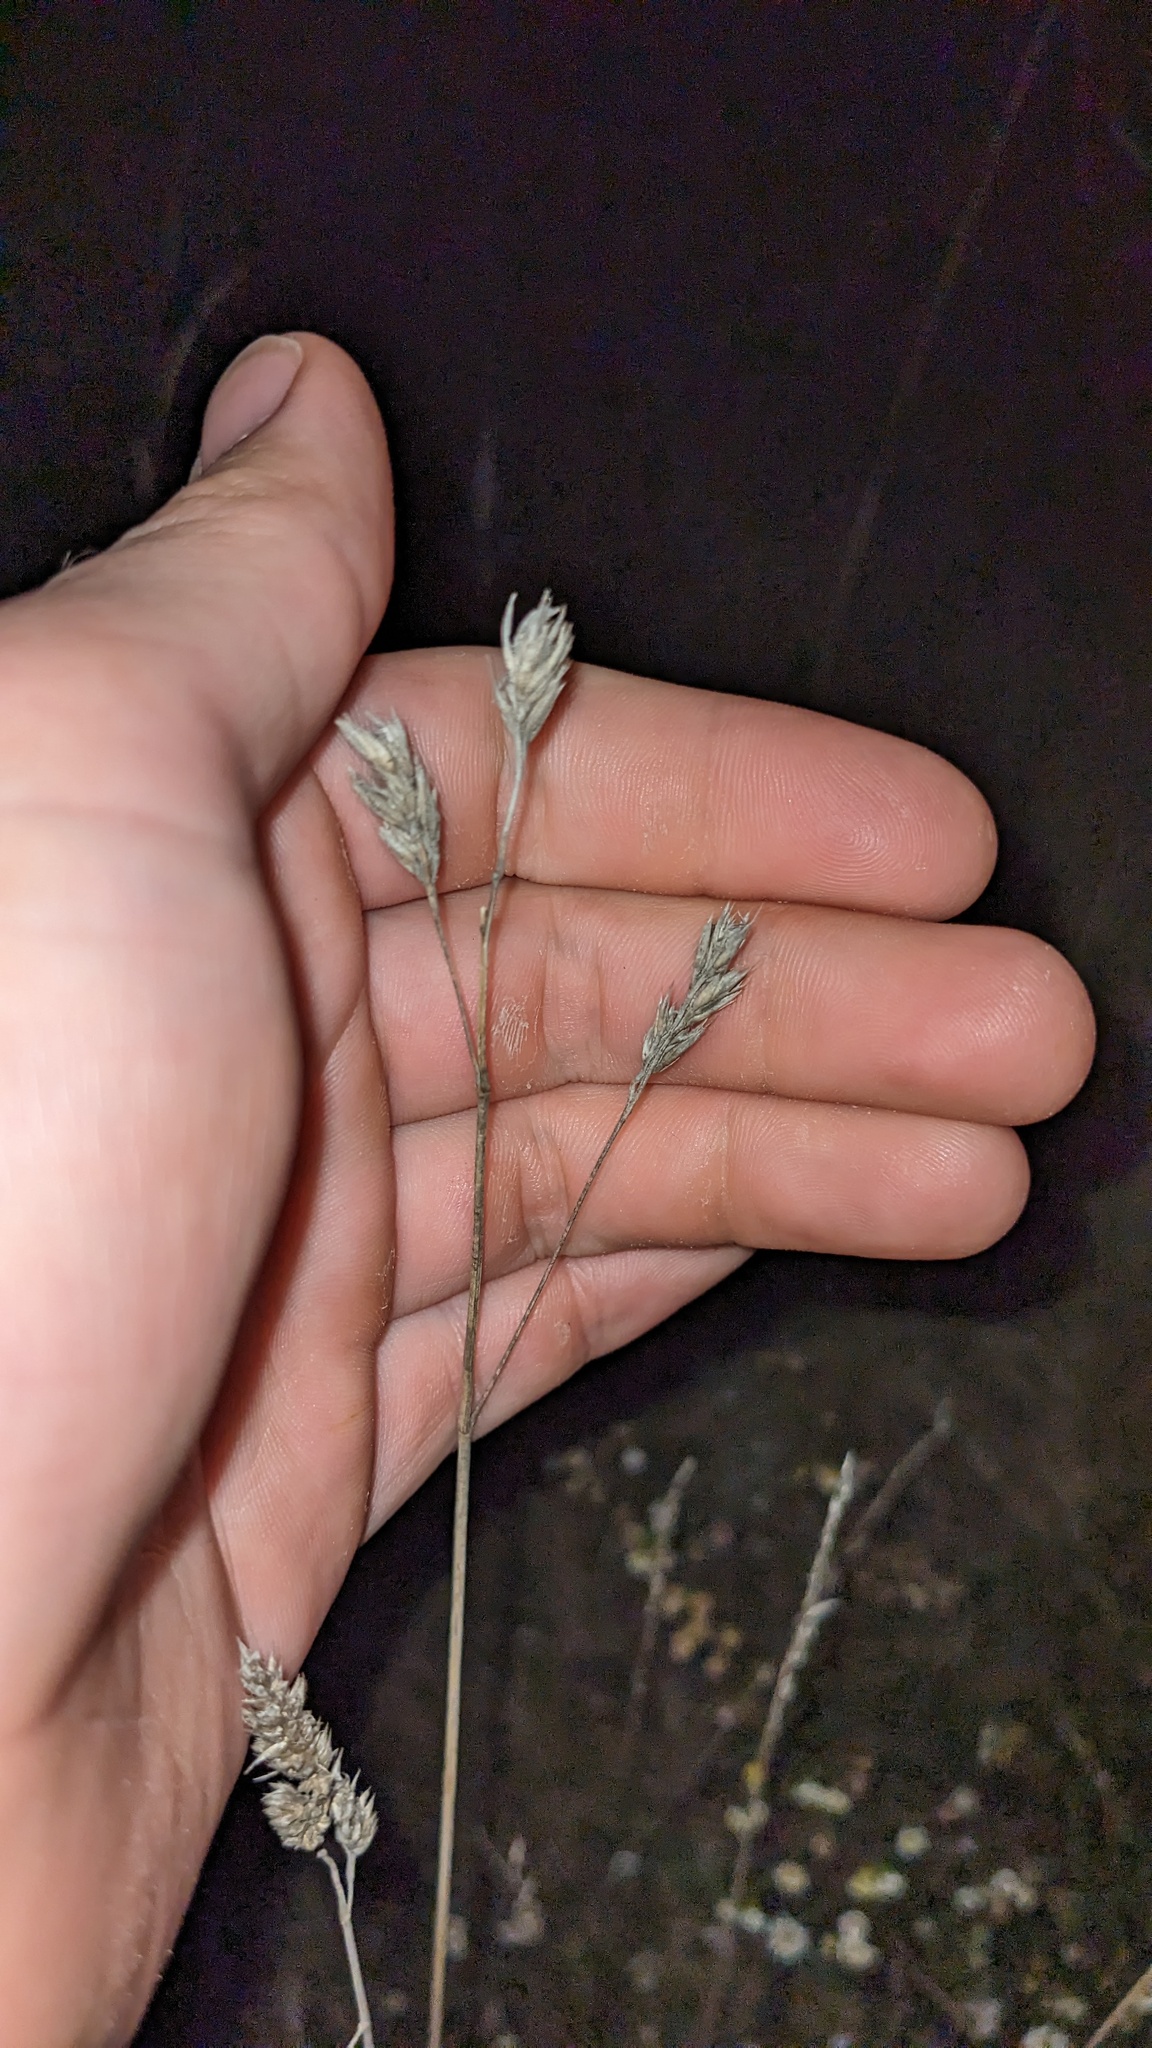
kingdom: Plantae
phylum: Tracheophyta
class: Liliopsida
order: Poales
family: Poaceae
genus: Dactylis
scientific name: Dactylis glomerata
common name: Orchardgrass
